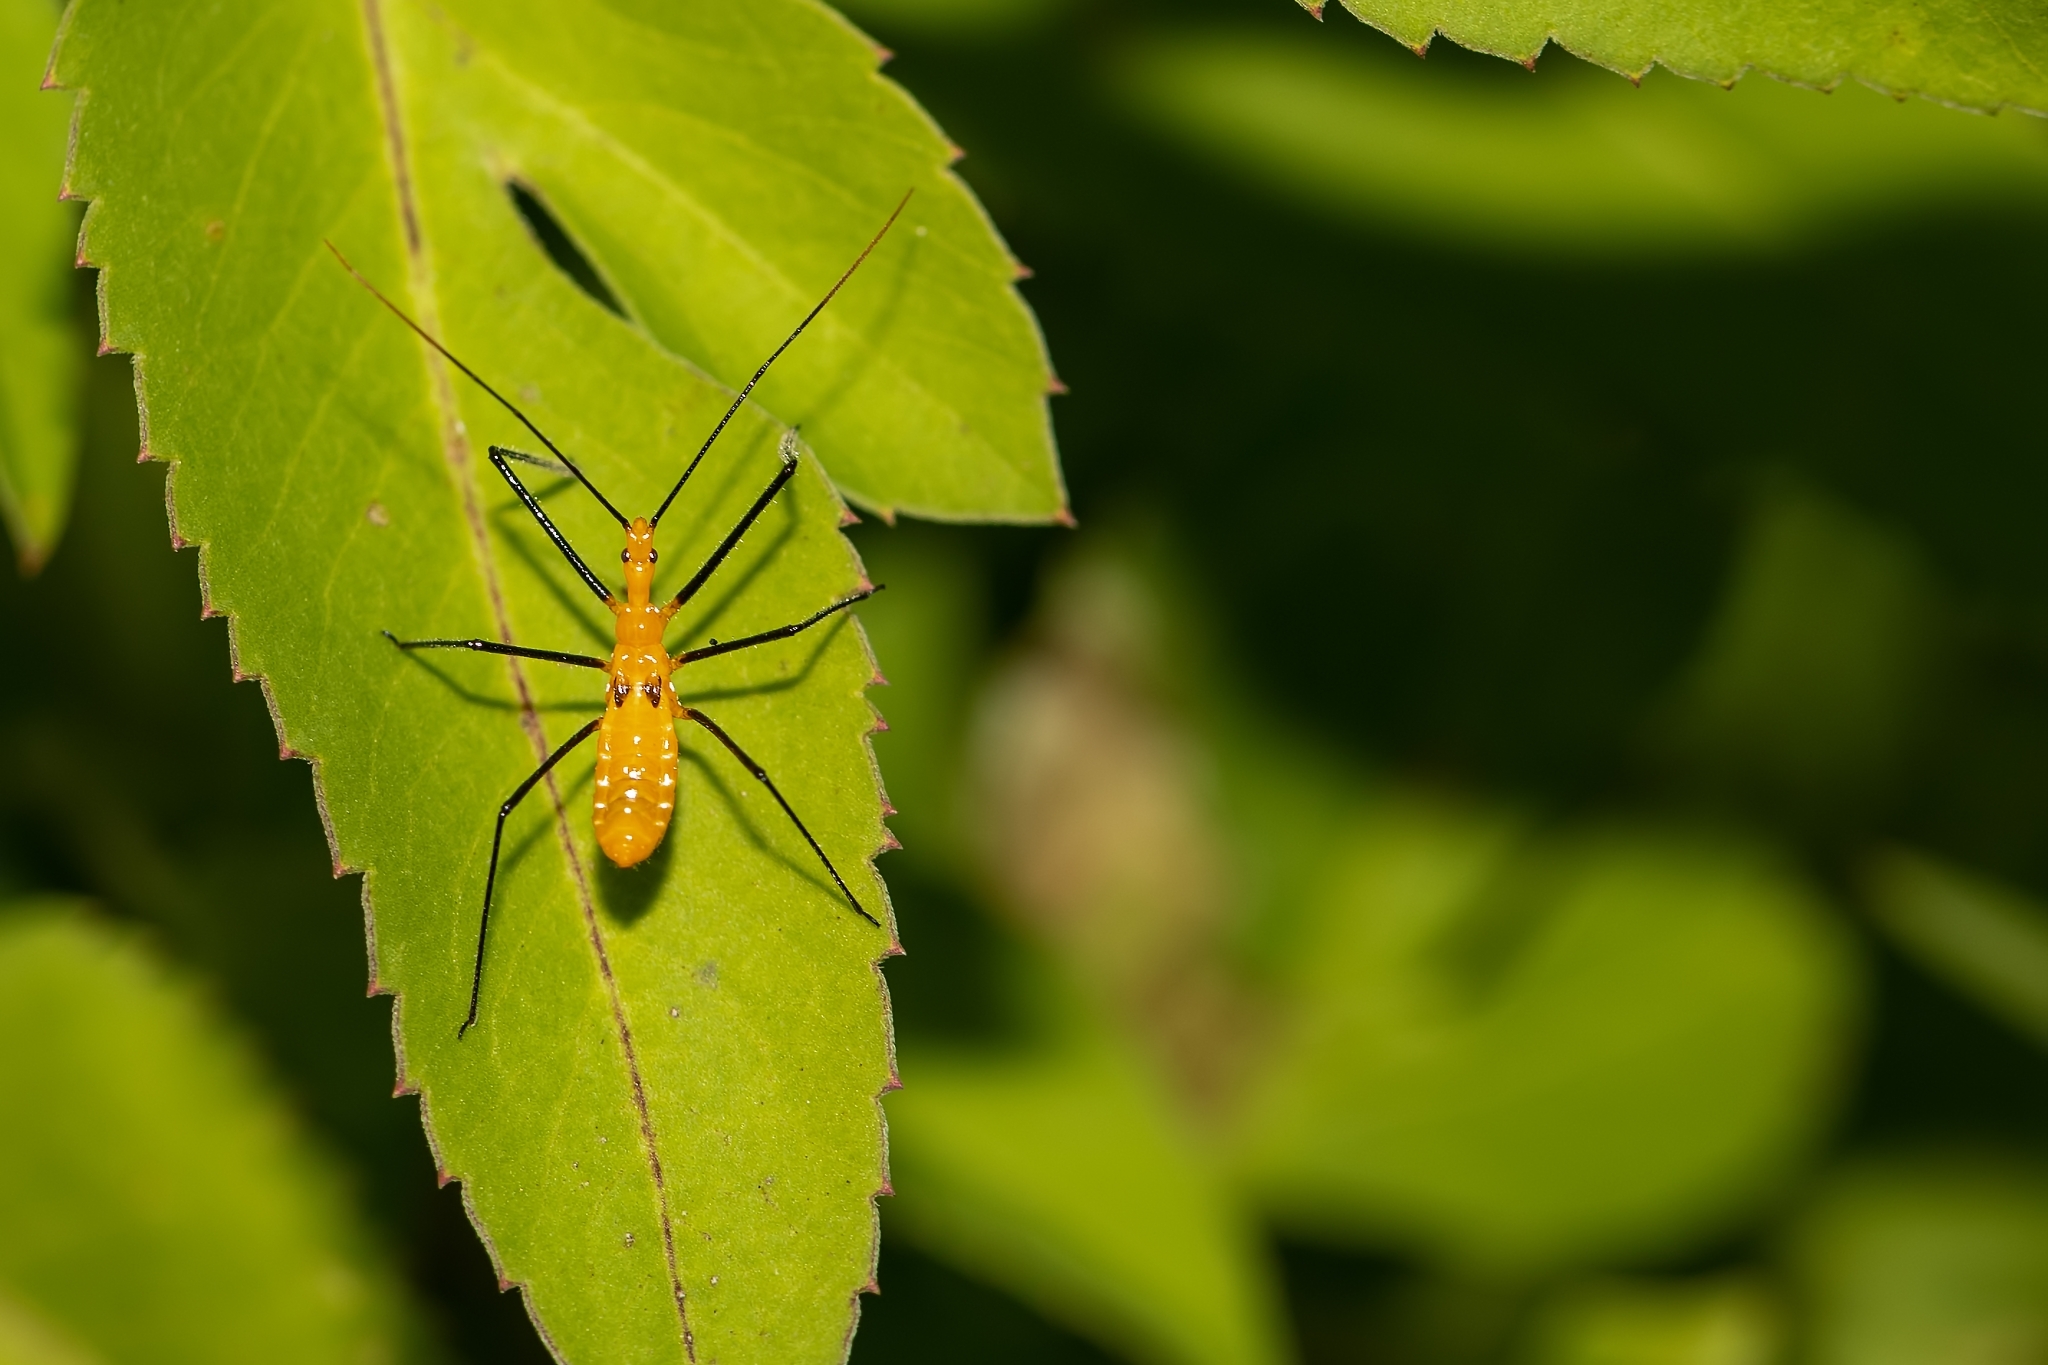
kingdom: Animalia
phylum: Arthropoda
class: Insecta
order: Hemiptera
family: Reduviidae
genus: Zelus
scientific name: Zelus longipes
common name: Milkweed assassin bug
